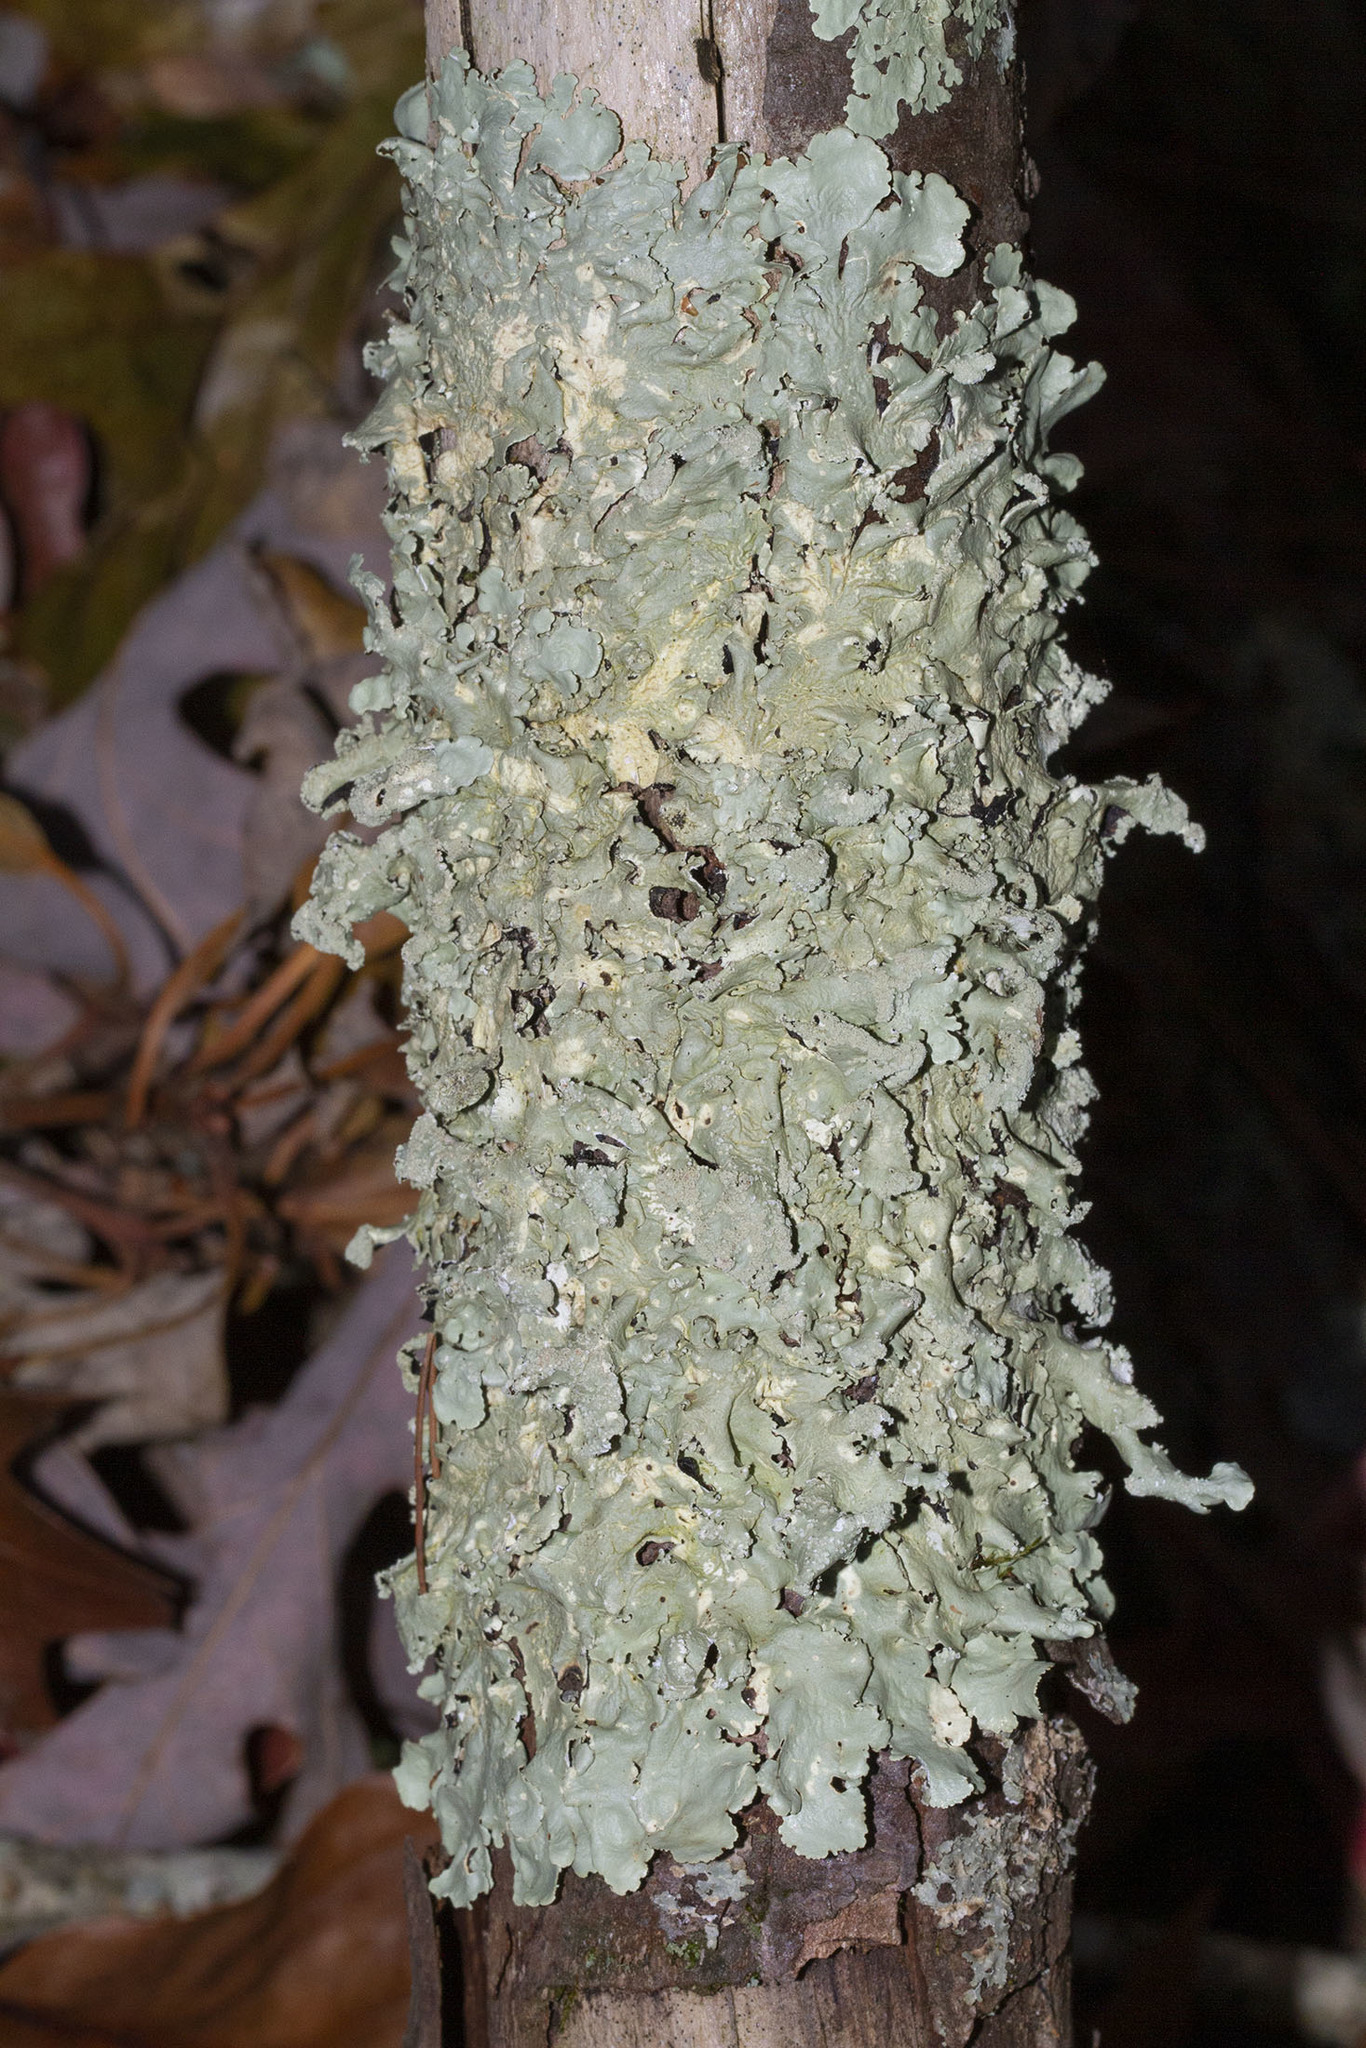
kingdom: Fungi
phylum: Ascomycota
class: Lecanoromycetes
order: Lecanorales
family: Parmeliaceae
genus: Flavoparmelia
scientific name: Flavoparmelia caperata
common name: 40-mile per hour lichen
